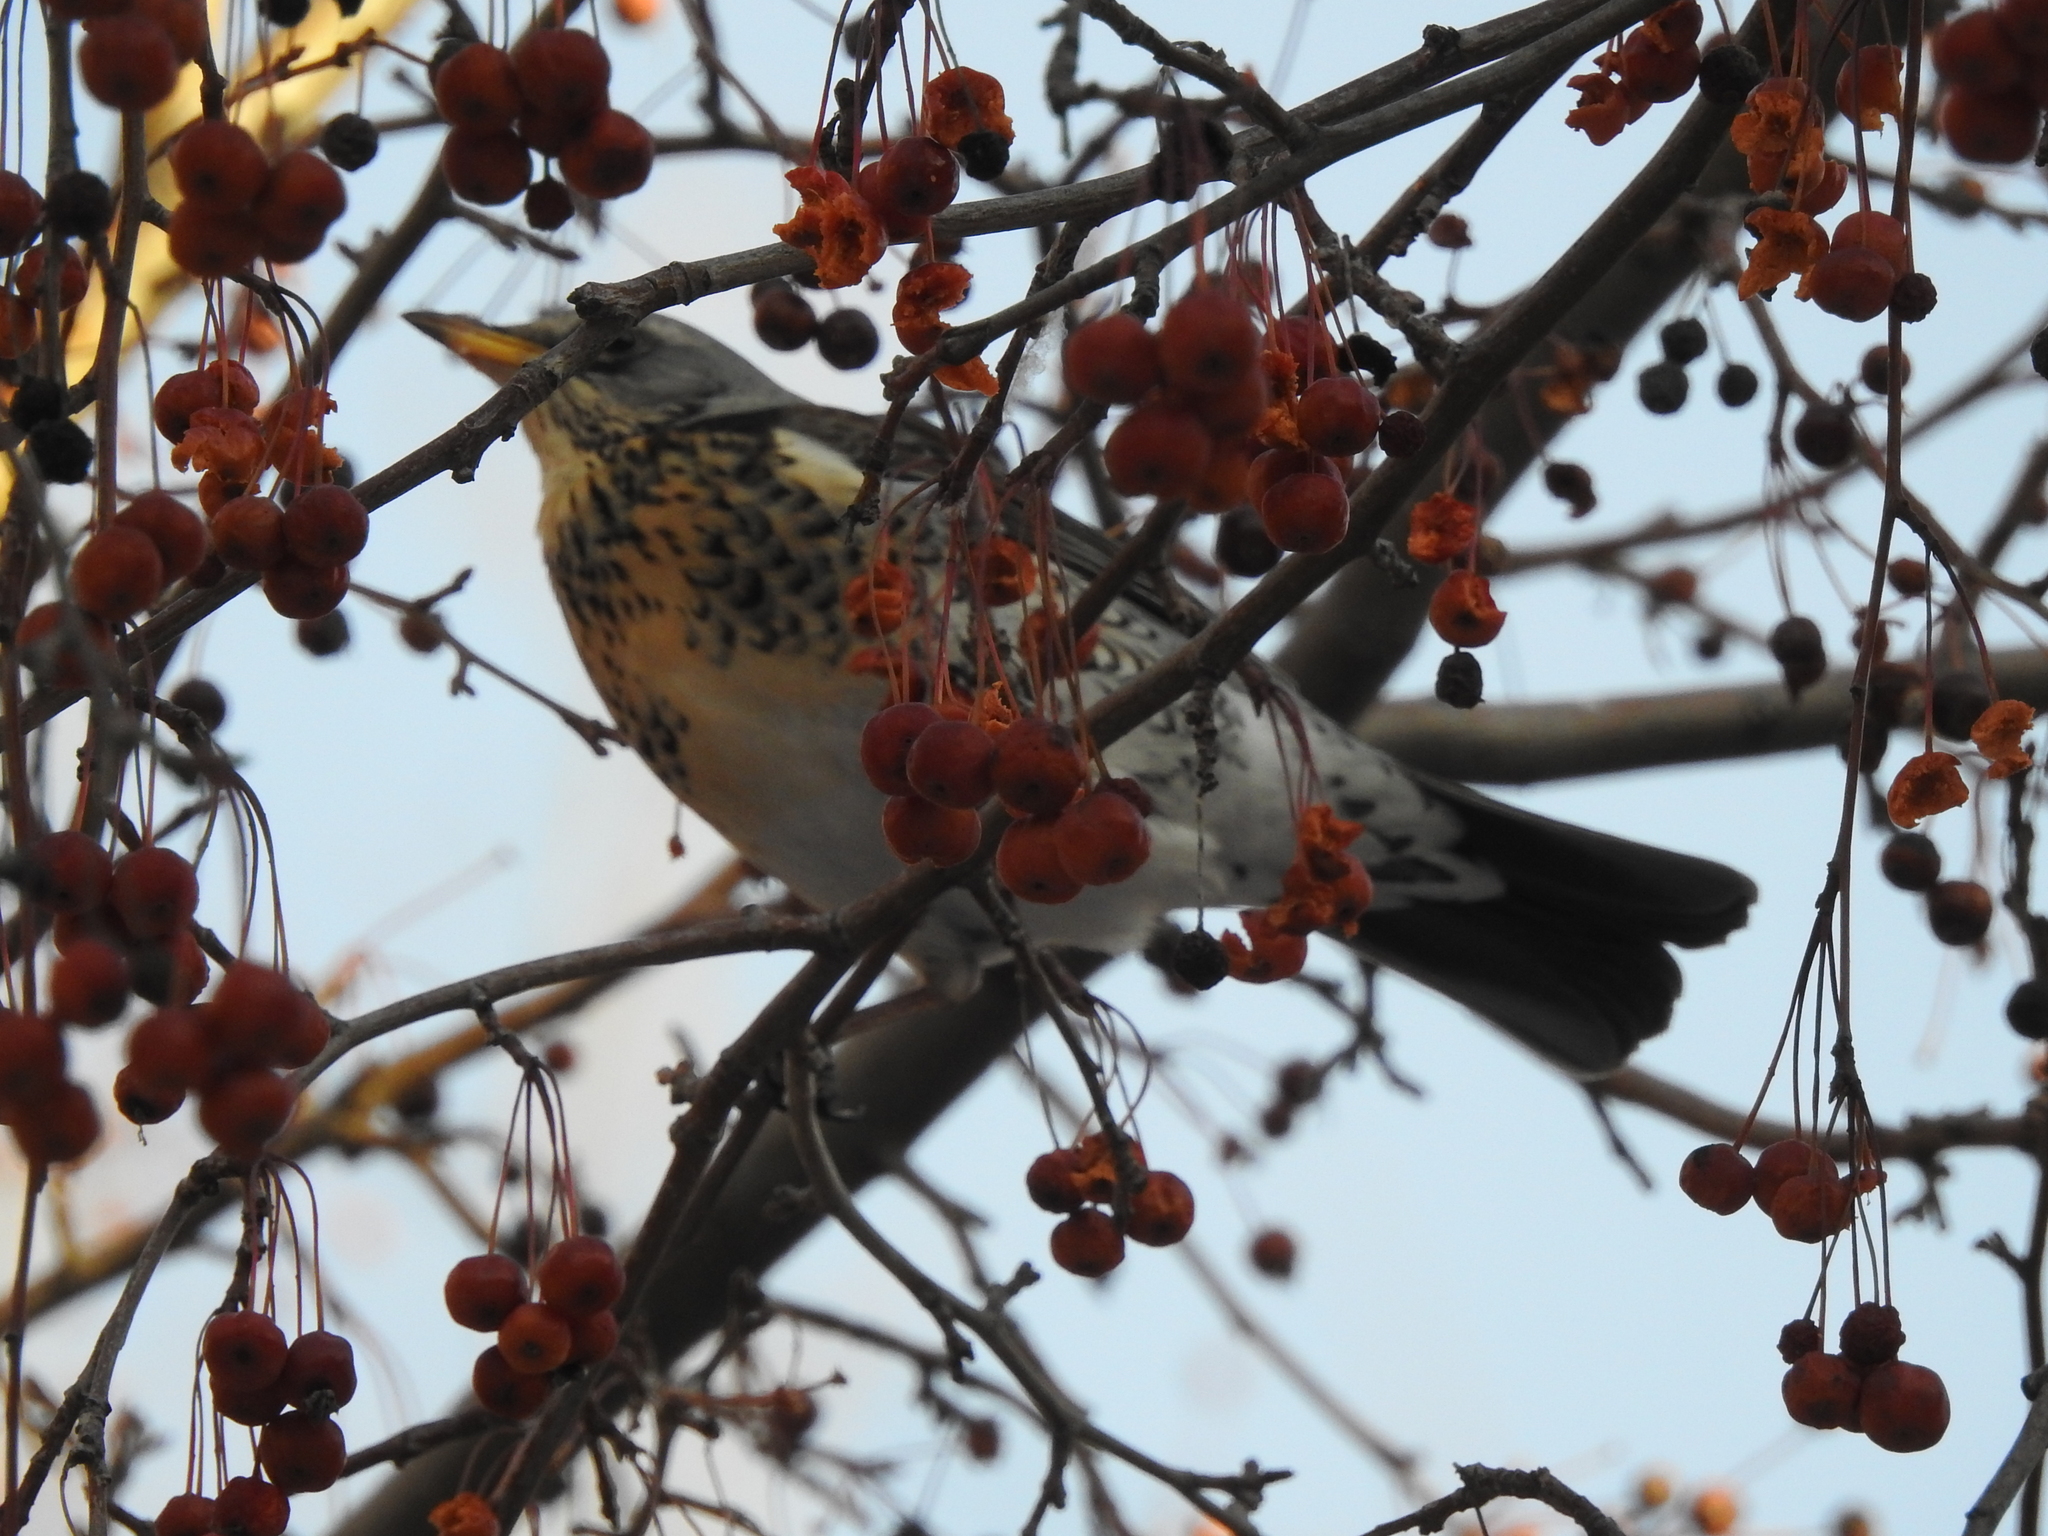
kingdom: Animalia
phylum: Chordata
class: Aves
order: Passeriformes
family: Turdidae
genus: Turdus
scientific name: Turdus pilaris
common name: Fieldfare
